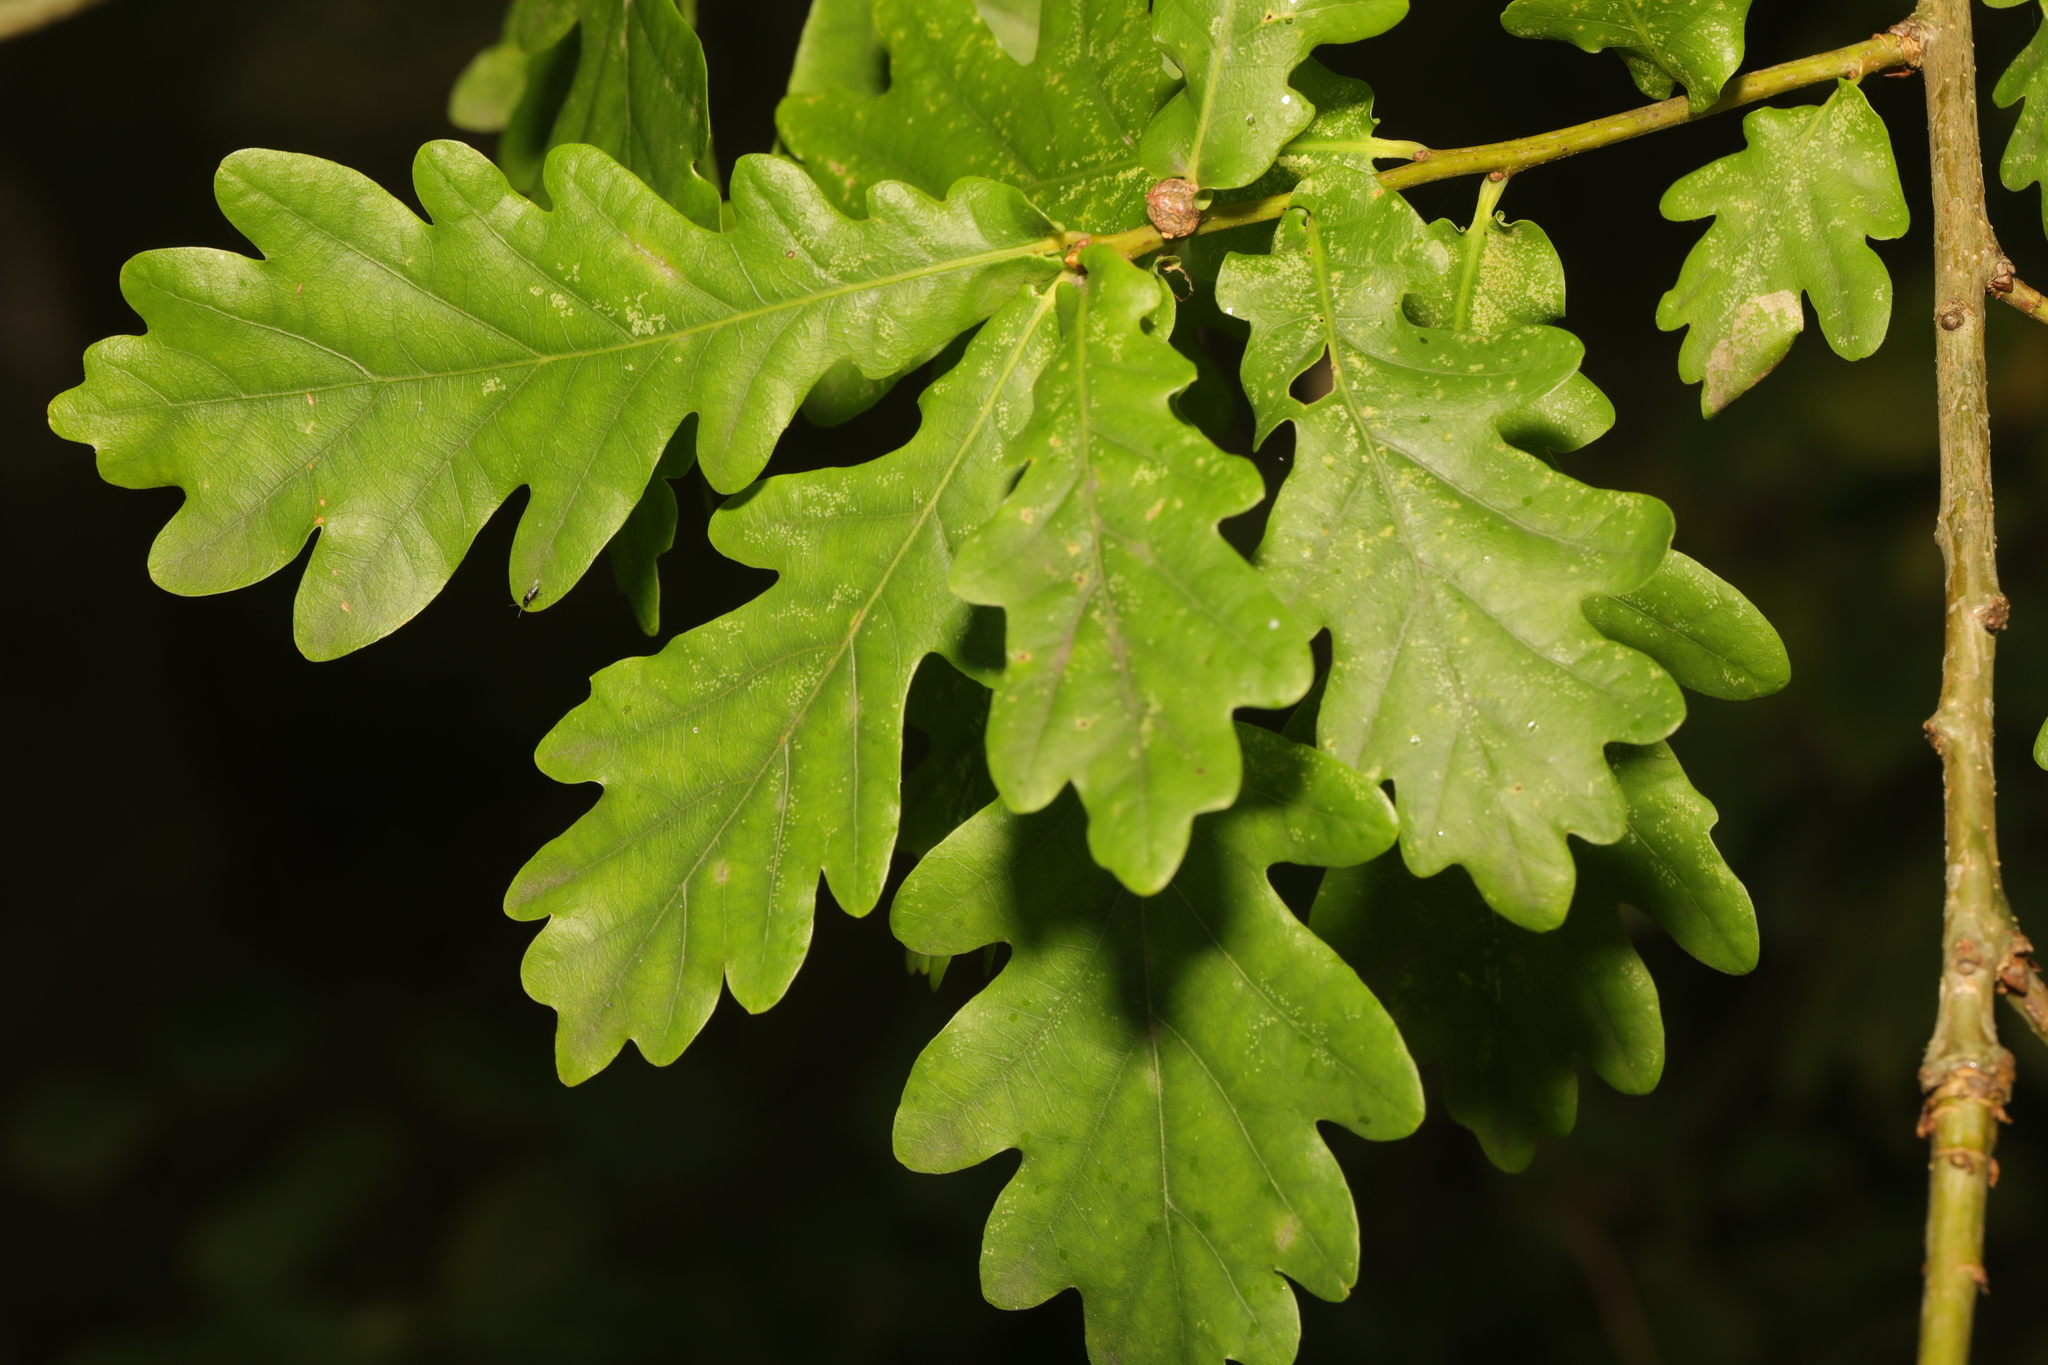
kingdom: Plantae
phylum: Tracheophyta
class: Magnoliopsida
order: Fagales
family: Fagaceae
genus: Quercus
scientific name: Quercus robur
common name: Pedunculate oak
